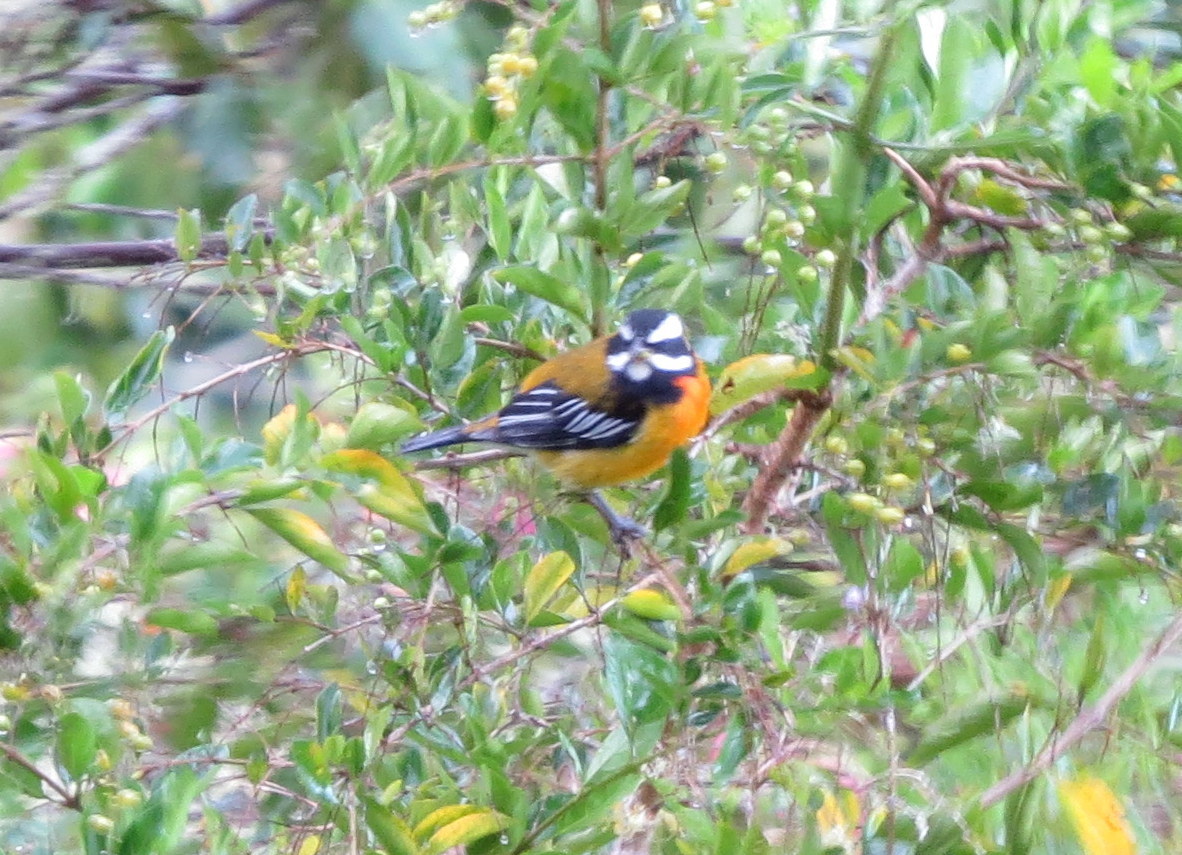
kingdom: Animalia
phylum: Chordata
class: Aves
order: Passeriformes
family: Spindalidae
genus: Spindalis
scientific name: Spindalis nigricephala
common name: Jamaican spindalis
